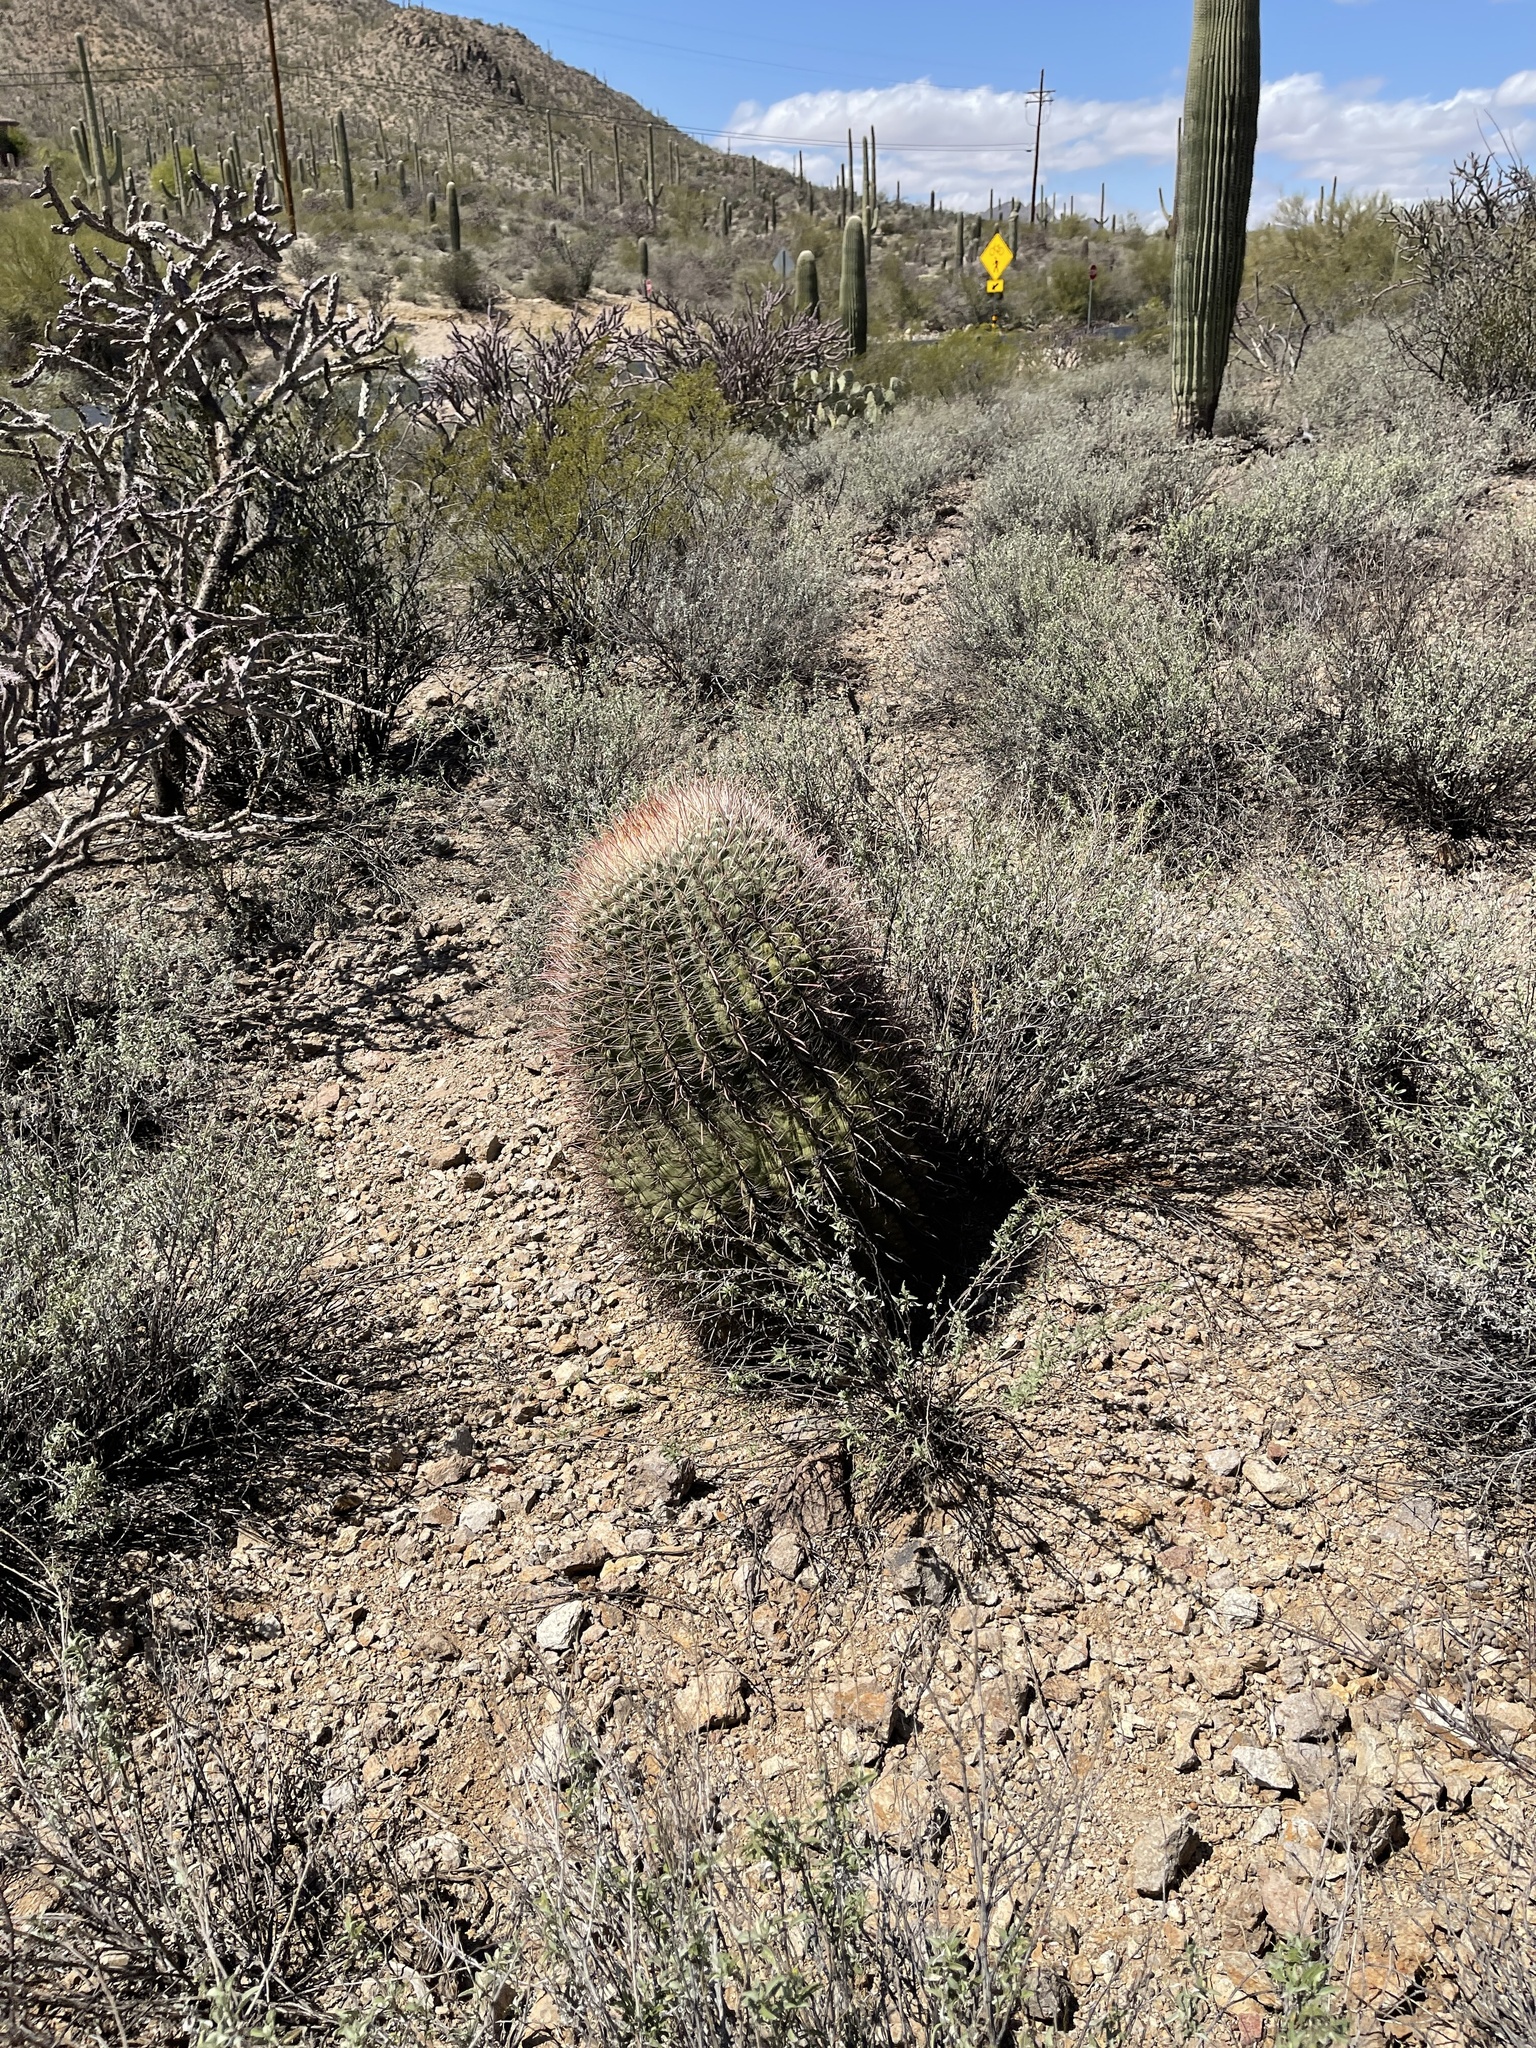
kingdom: Plantae
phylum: Tracheophyta
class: Magnoliopsida
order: Caryophyllales
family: Cactaceae
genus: Ferocactus
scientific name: Ferocactus wislizeni
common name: Candy barrel cactus
